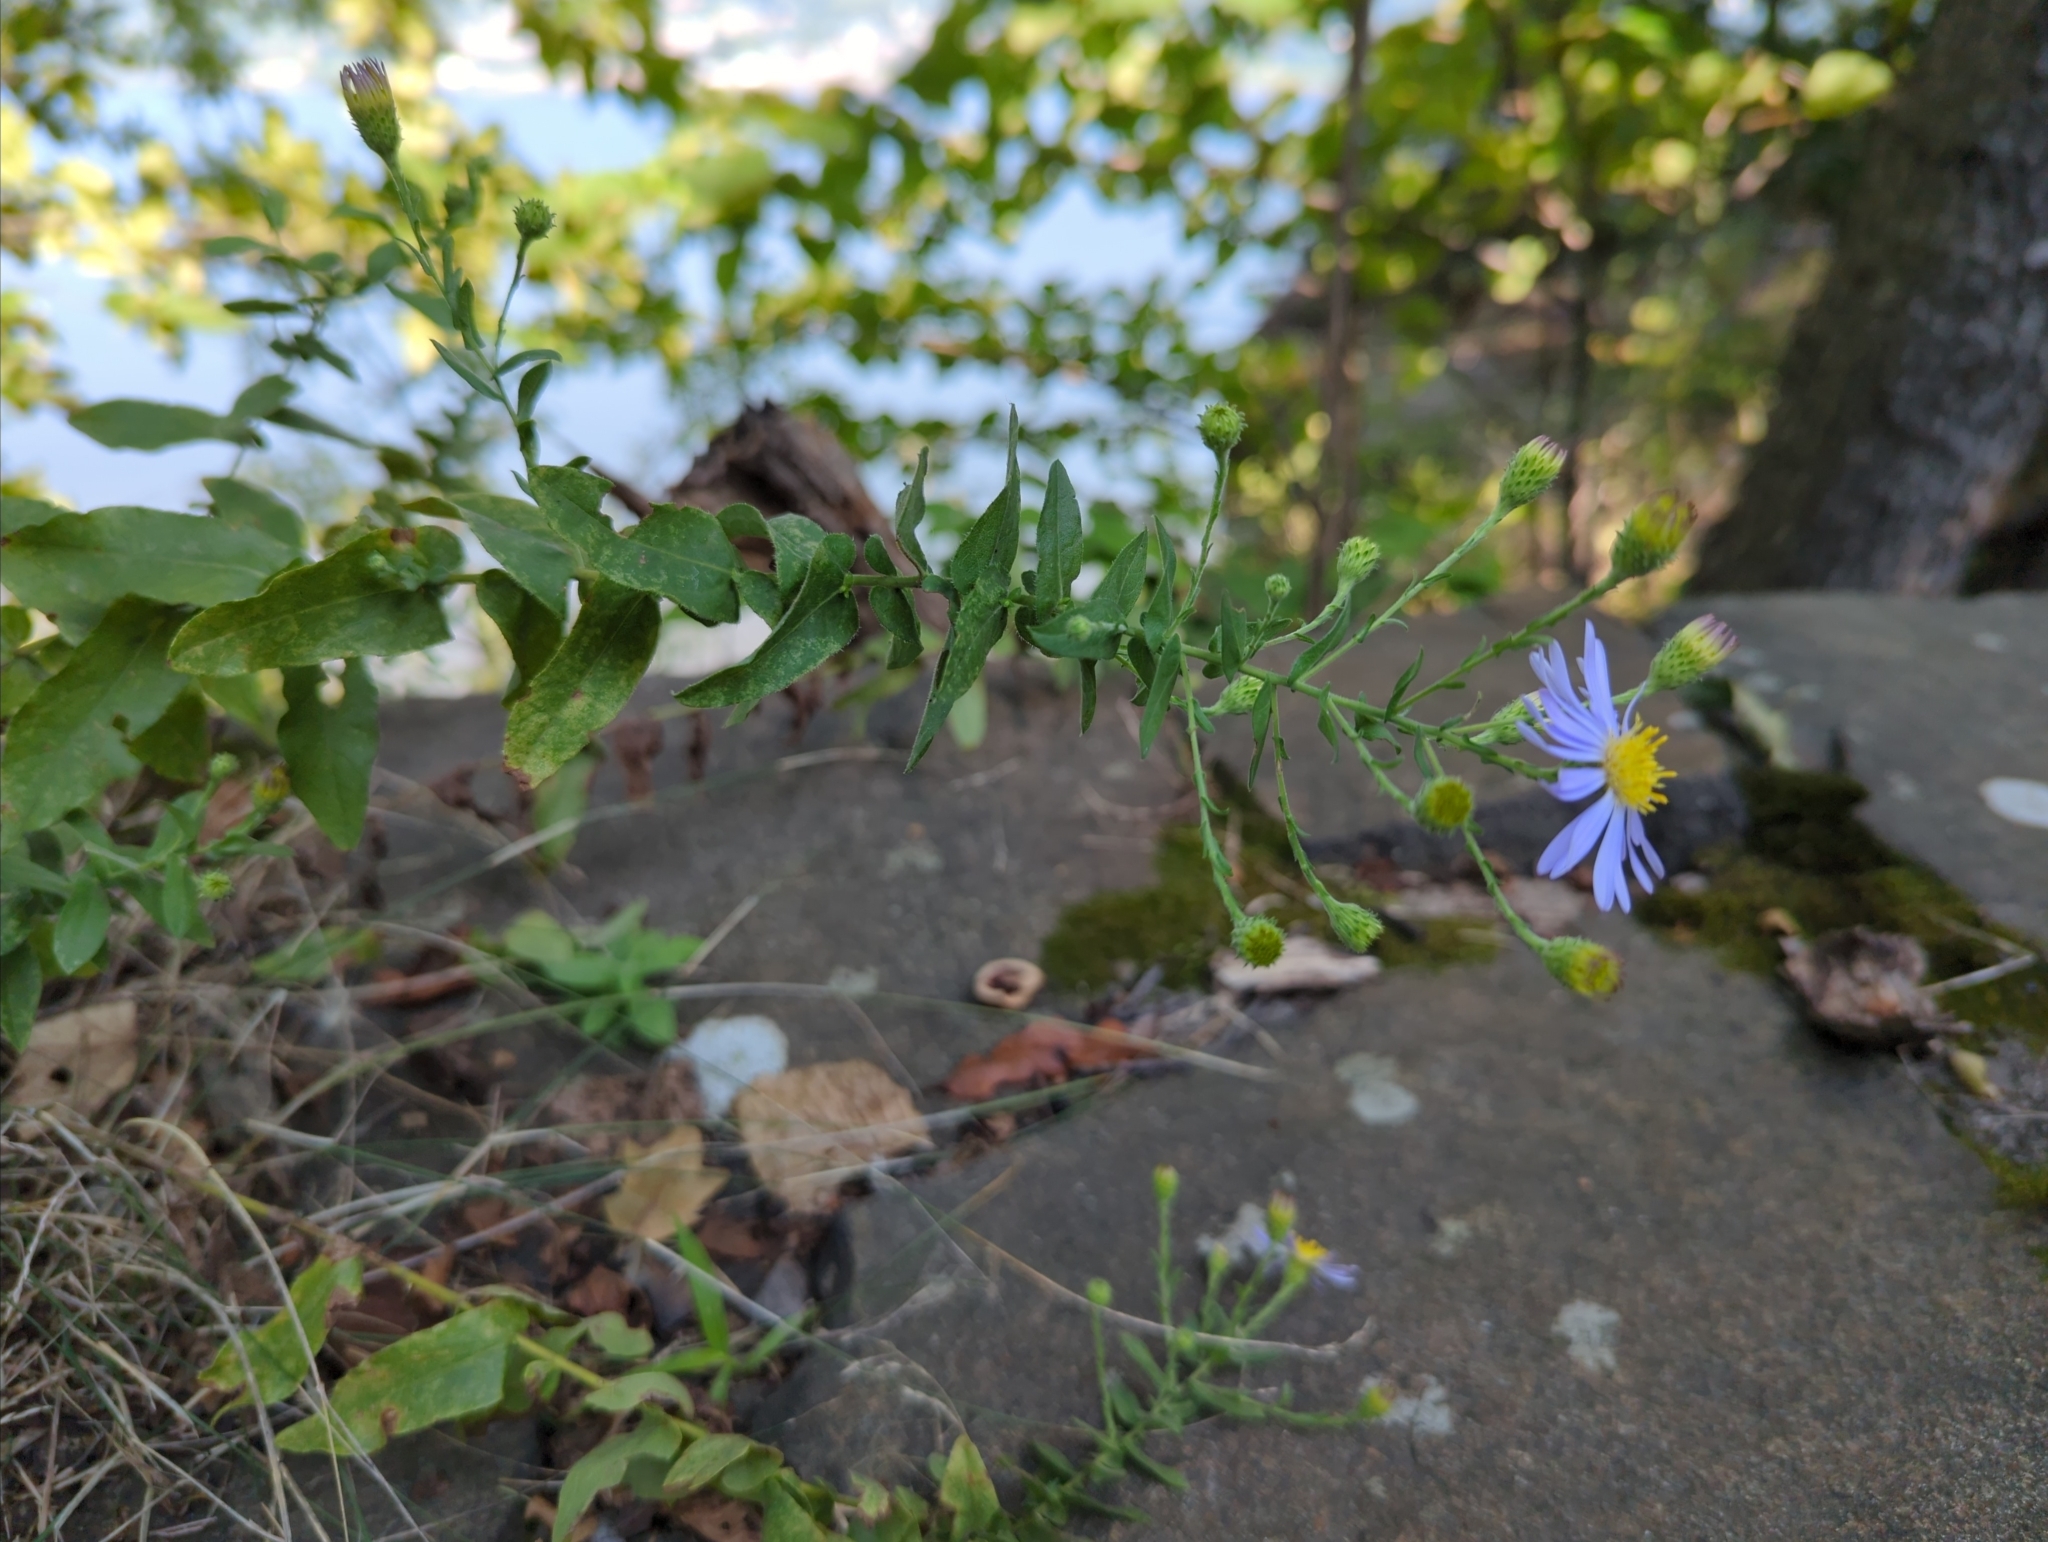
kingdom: Plantae
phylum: Tracheophyta
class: Magnoliopsida
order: Asterales
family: Asteraceae
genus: Symphyotrichum
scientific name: Symphyotrichum patens
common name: Late purple aster
